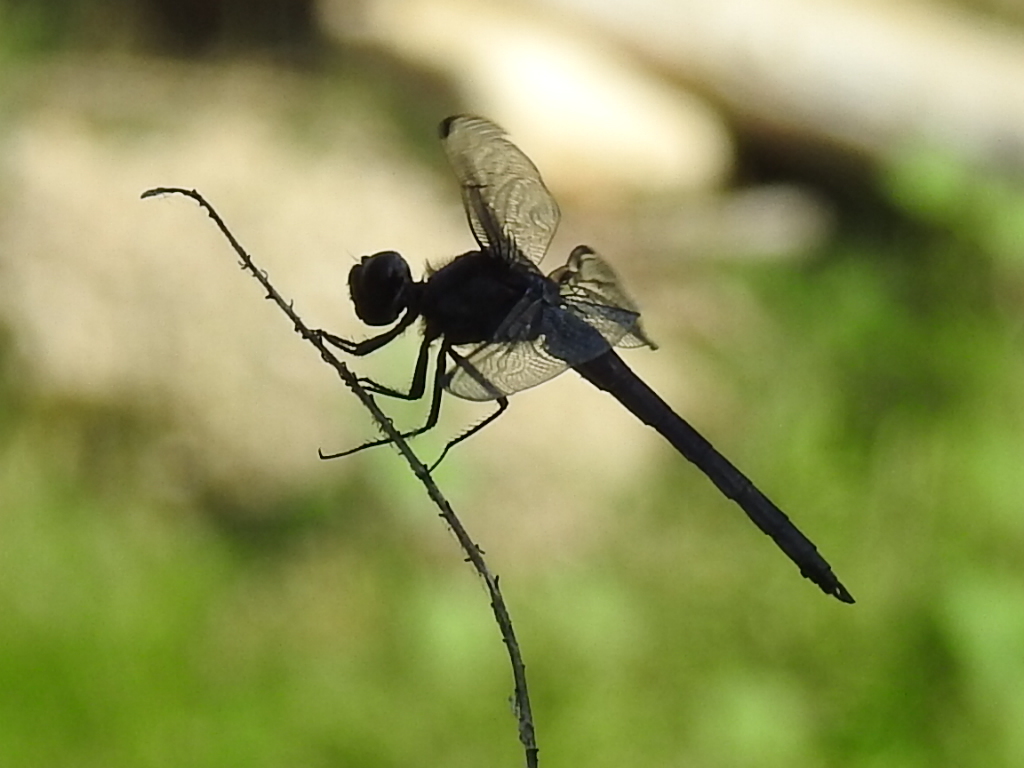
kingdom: Animalia
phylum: Arthropoda
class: Insecta
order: Odonata
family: Libellulidae
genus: Libellula
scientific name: Libellula incesta
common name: Slaty skimmer
